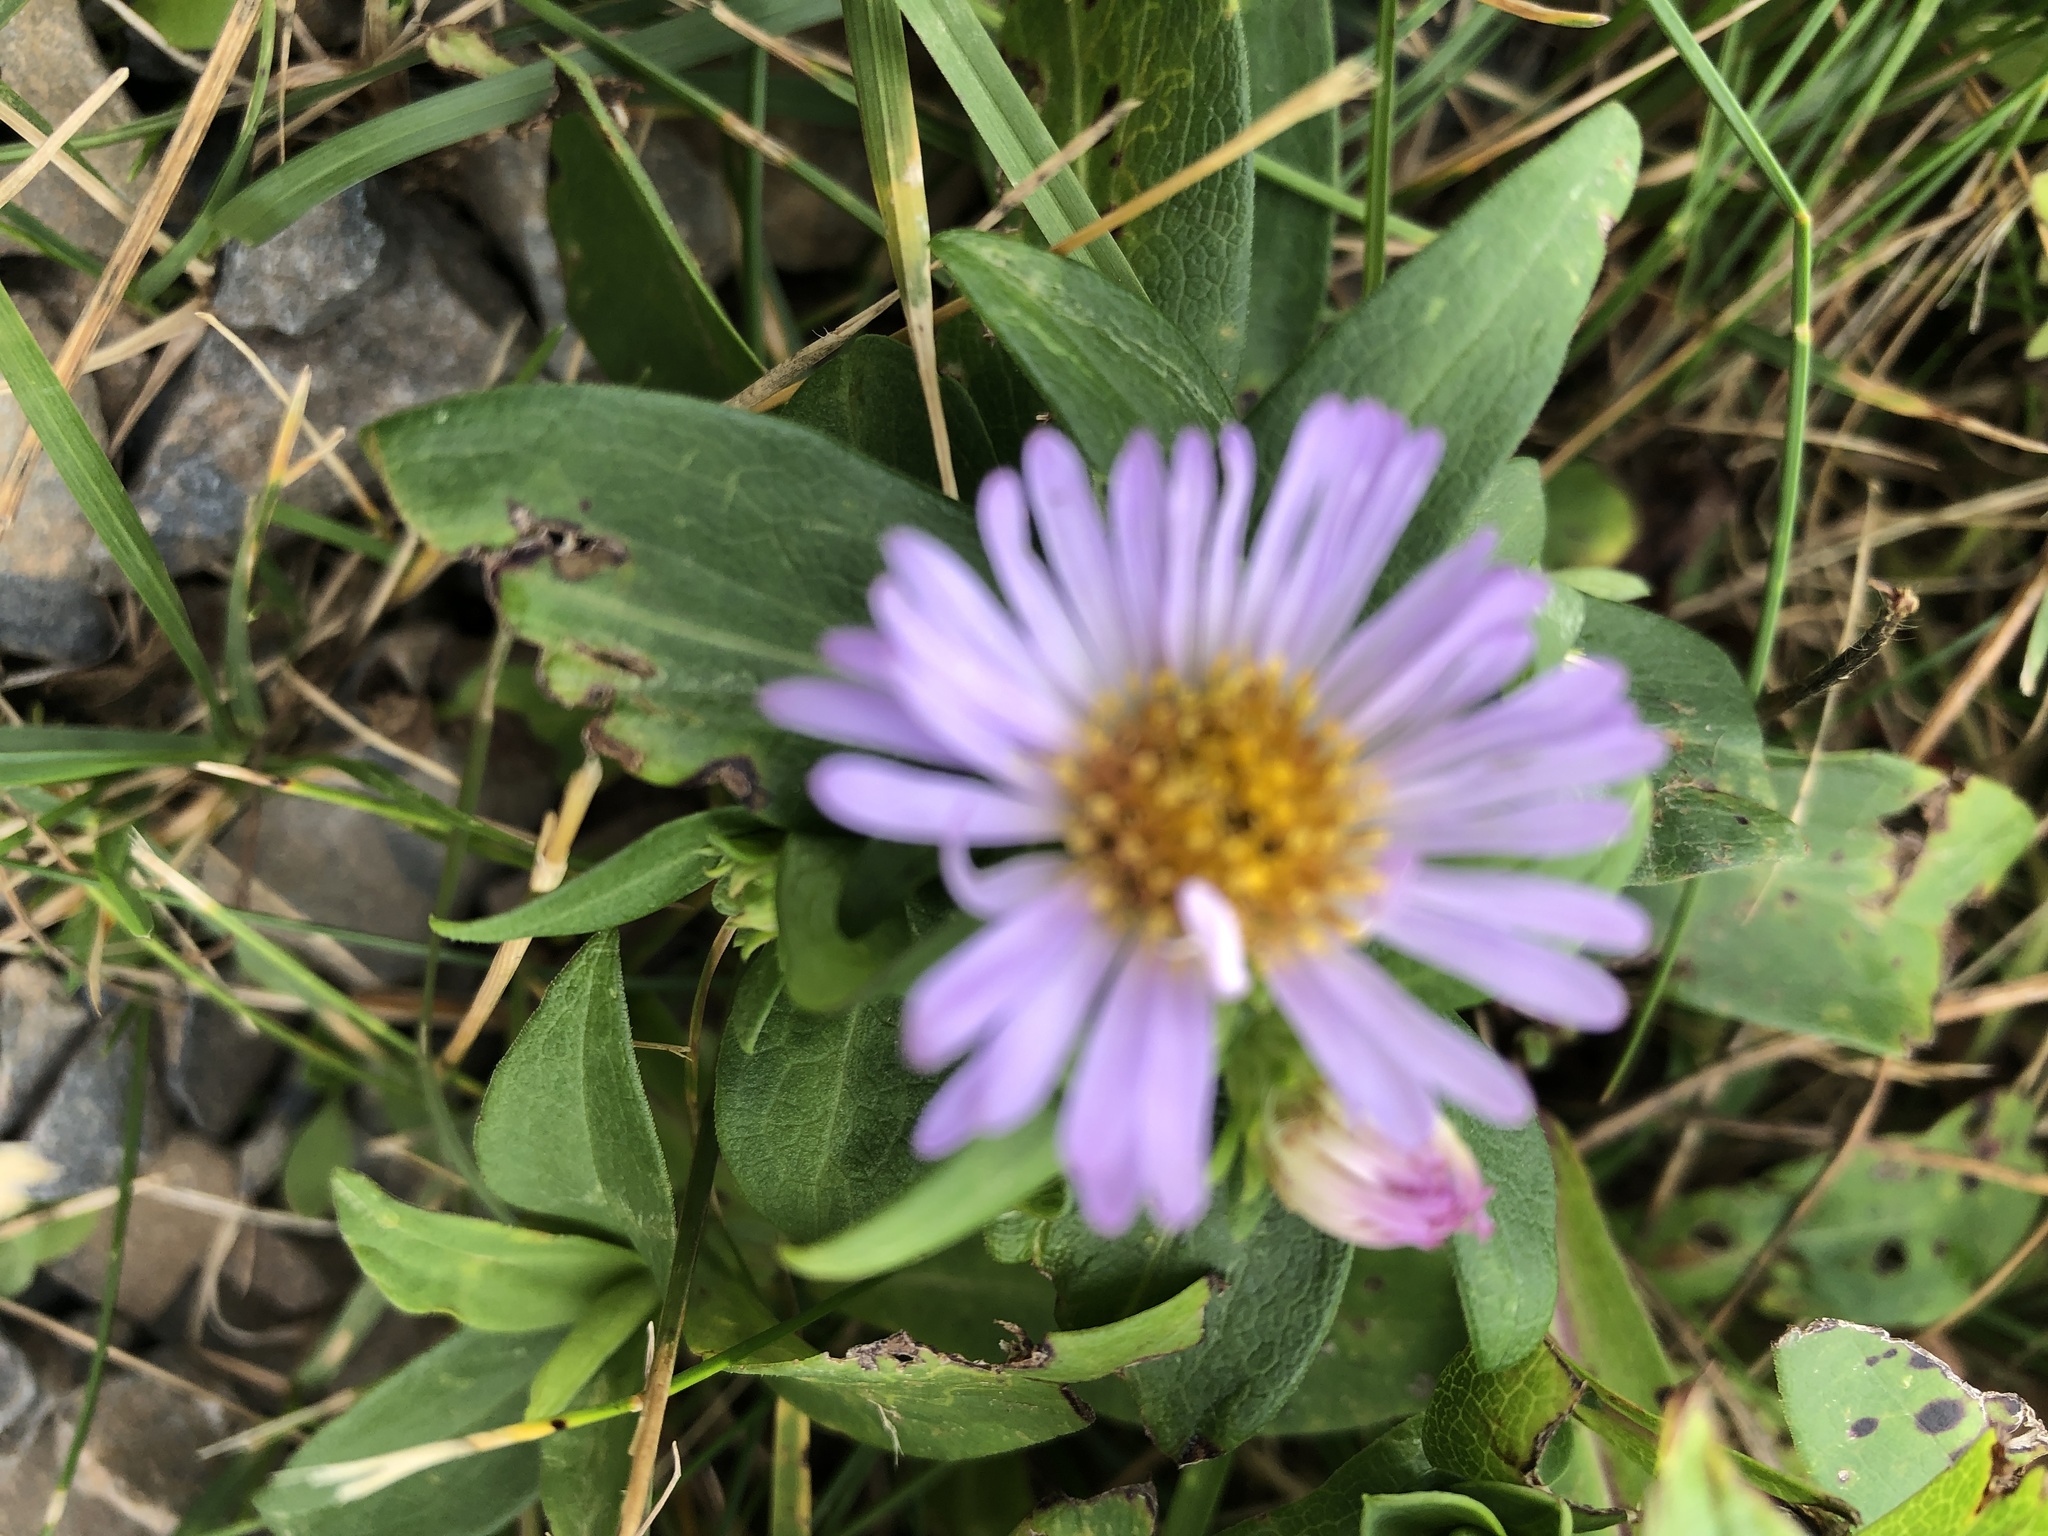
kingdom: Plantae
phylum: Tracheophyta
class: Magnoliopsida
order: Asterales
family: Asteraceae
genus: Symphyotrichum
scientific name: Symphyotrichum novi-belgii
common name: Michaelmas daisy
